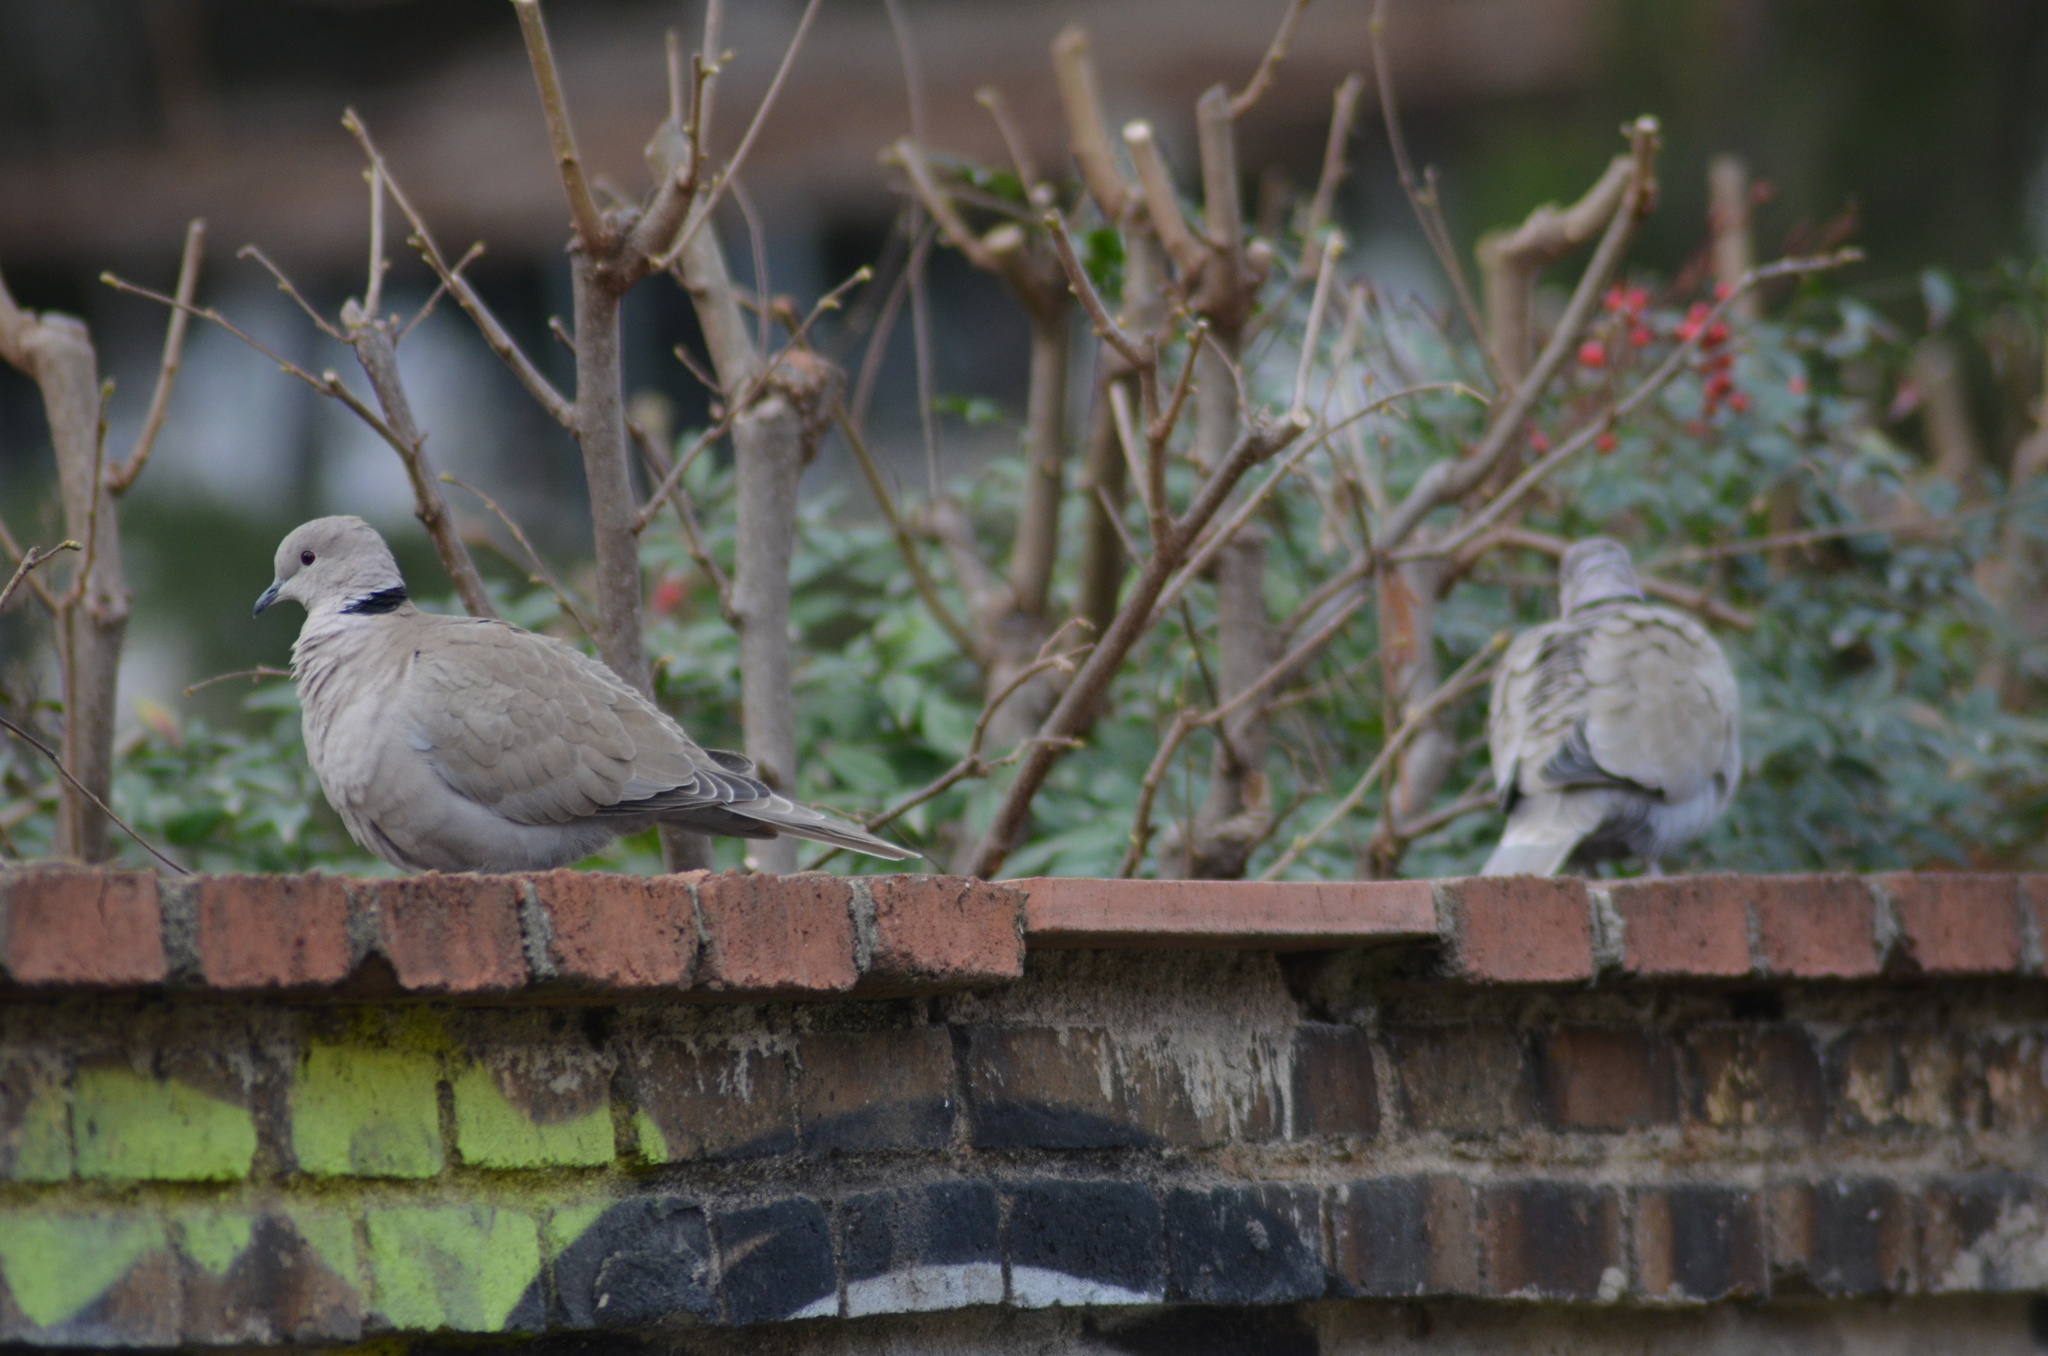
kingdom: Animalia
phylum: Chordata
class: Aves
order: Columbiformes
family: Columbidae
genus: Streptopelia
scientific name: Streptopelia decaocto
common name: Eurasian collared dove
